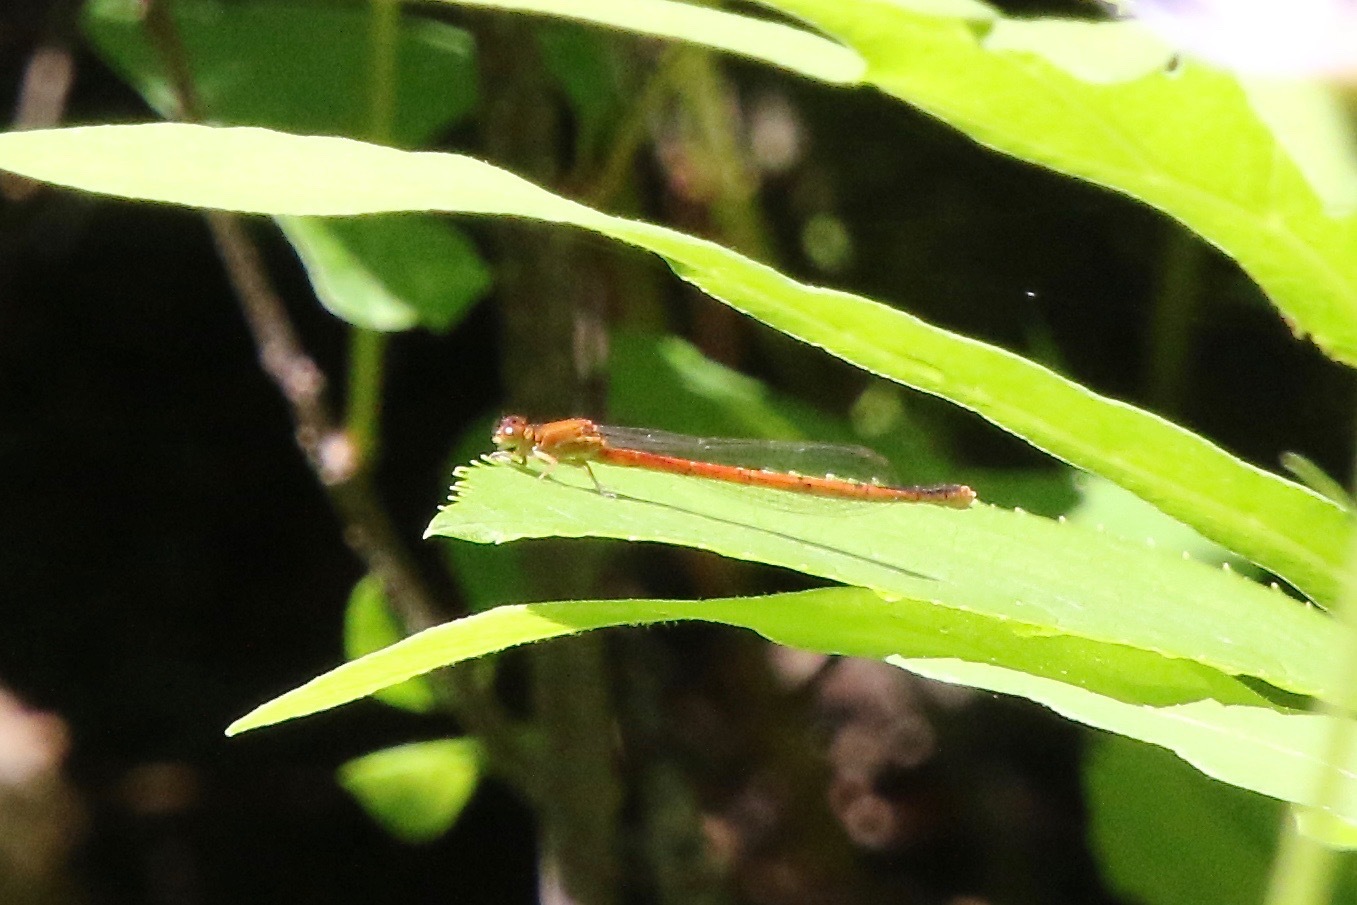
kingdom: Animalia
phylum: Arthropoda
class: Insecta
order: Odonata
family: Coenagrionidae
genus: Amphiagrion
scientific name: Amphiagrion saucium
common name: Eastern red damsel
